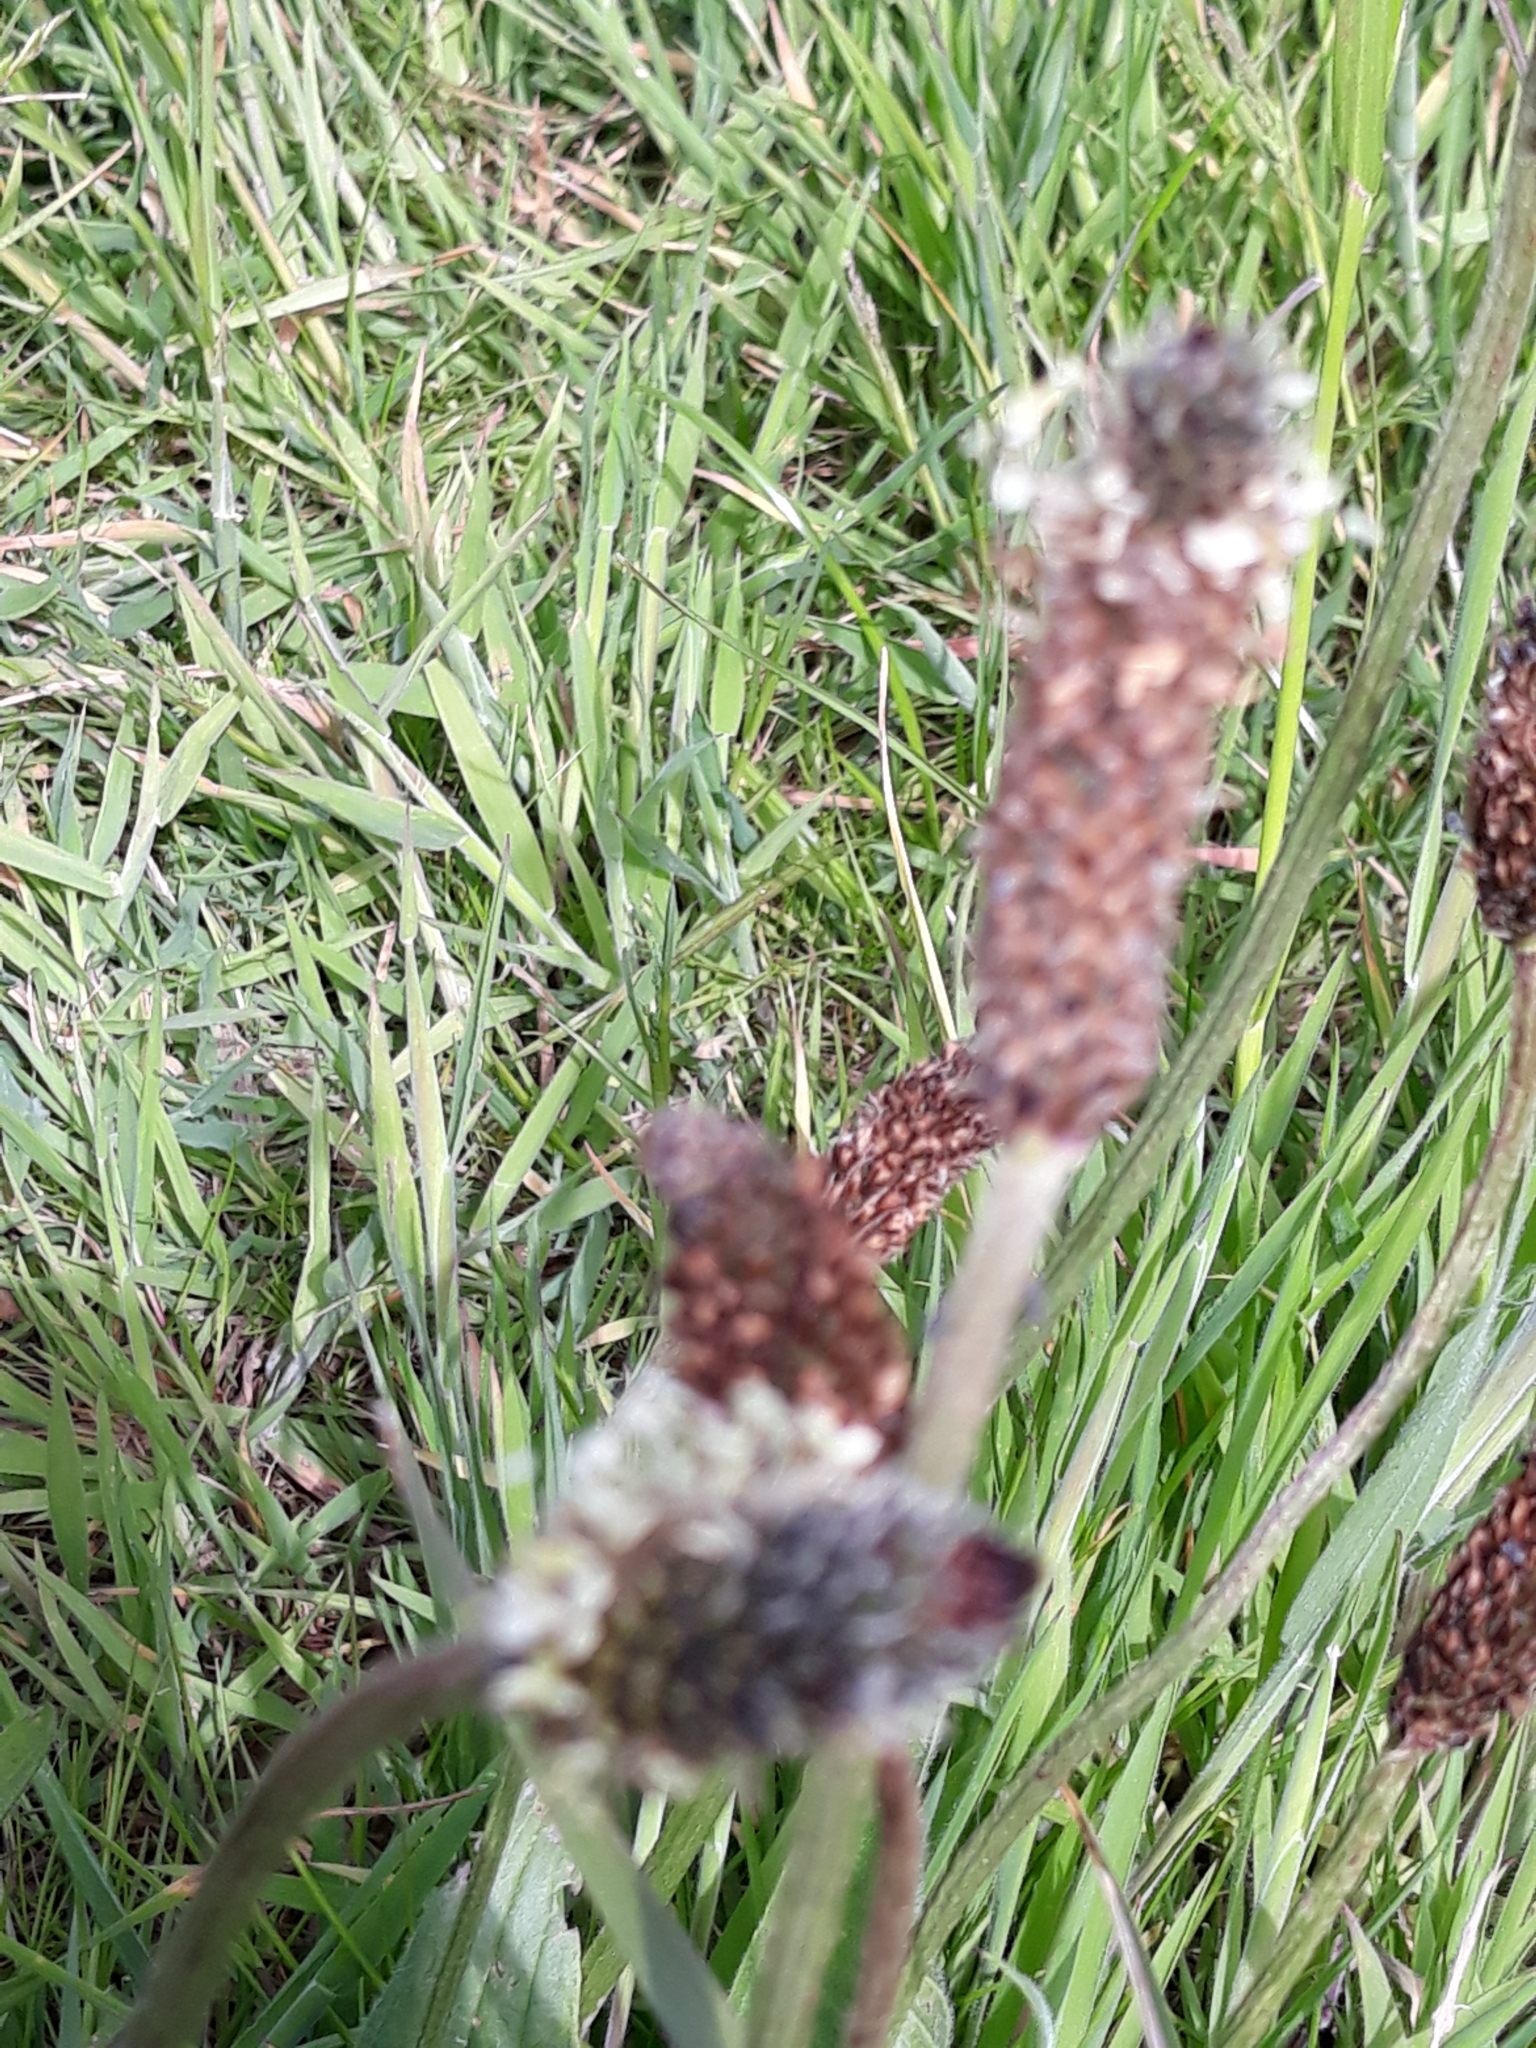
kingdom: Plantae
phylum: Tracheophyta
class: Magnoliopsida
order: Lamiales
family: Plantaginaceae
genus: Plantago
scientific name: Plantago lanceolata
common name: Ribwort plantain
